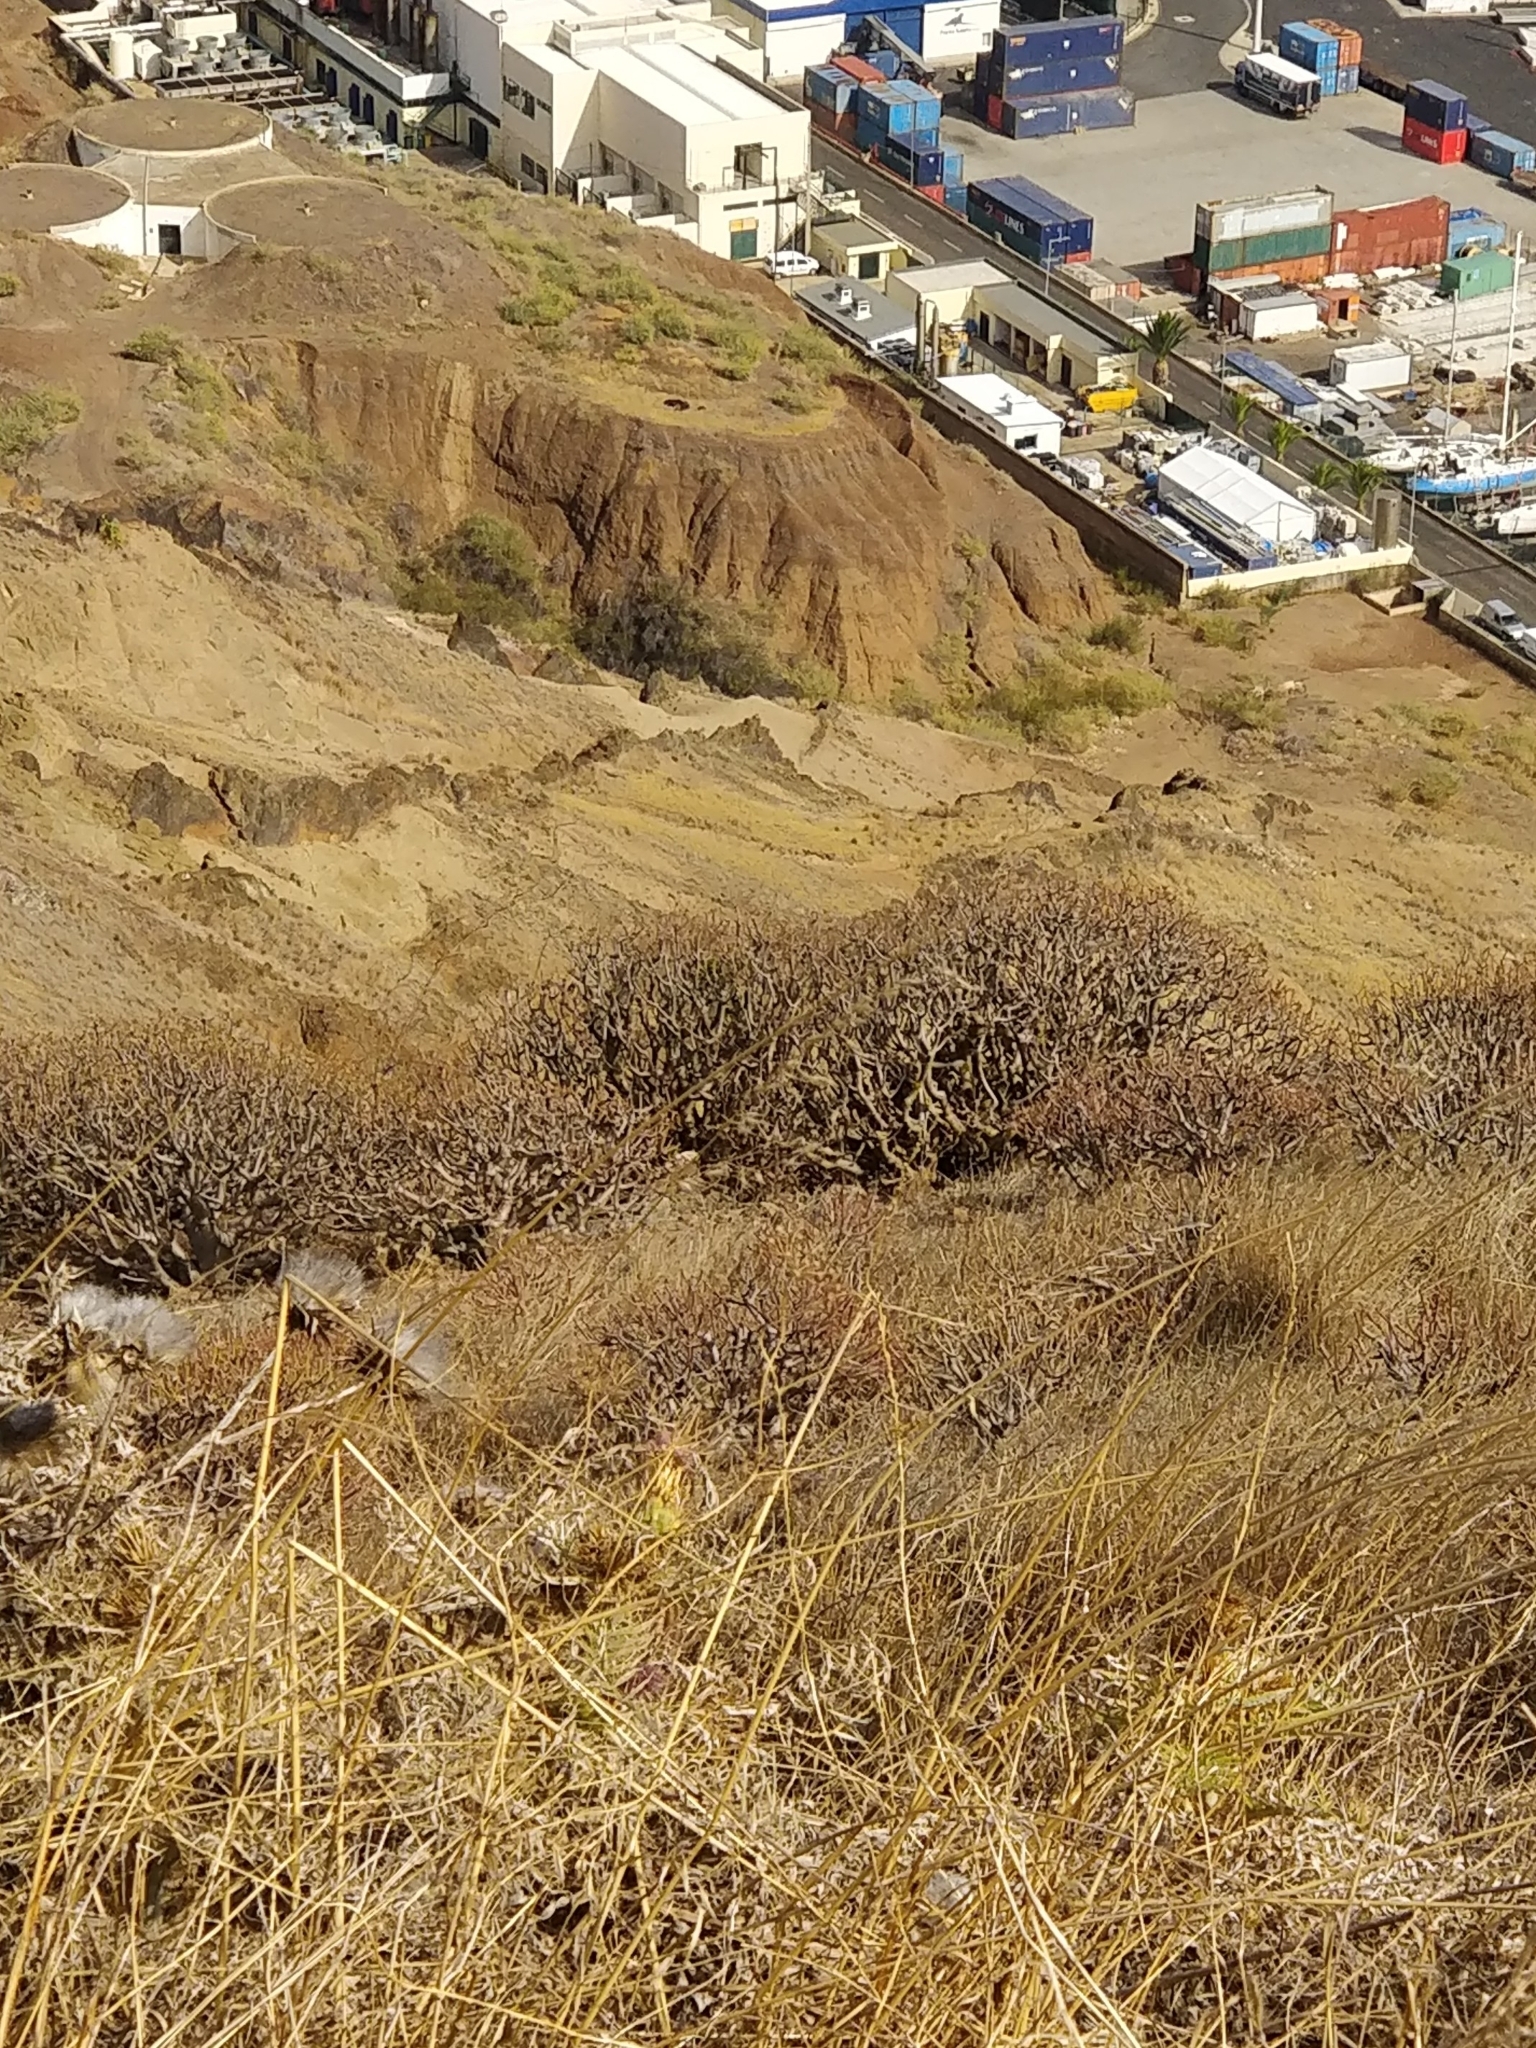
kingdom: Plantae
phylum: Tracheophyta
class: Magnoliopsida
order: Malpighiales
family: Euphorbiaceae
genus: Euphorbia
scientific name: Euphorbia piscatoria
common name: Fish-stunning spurge
